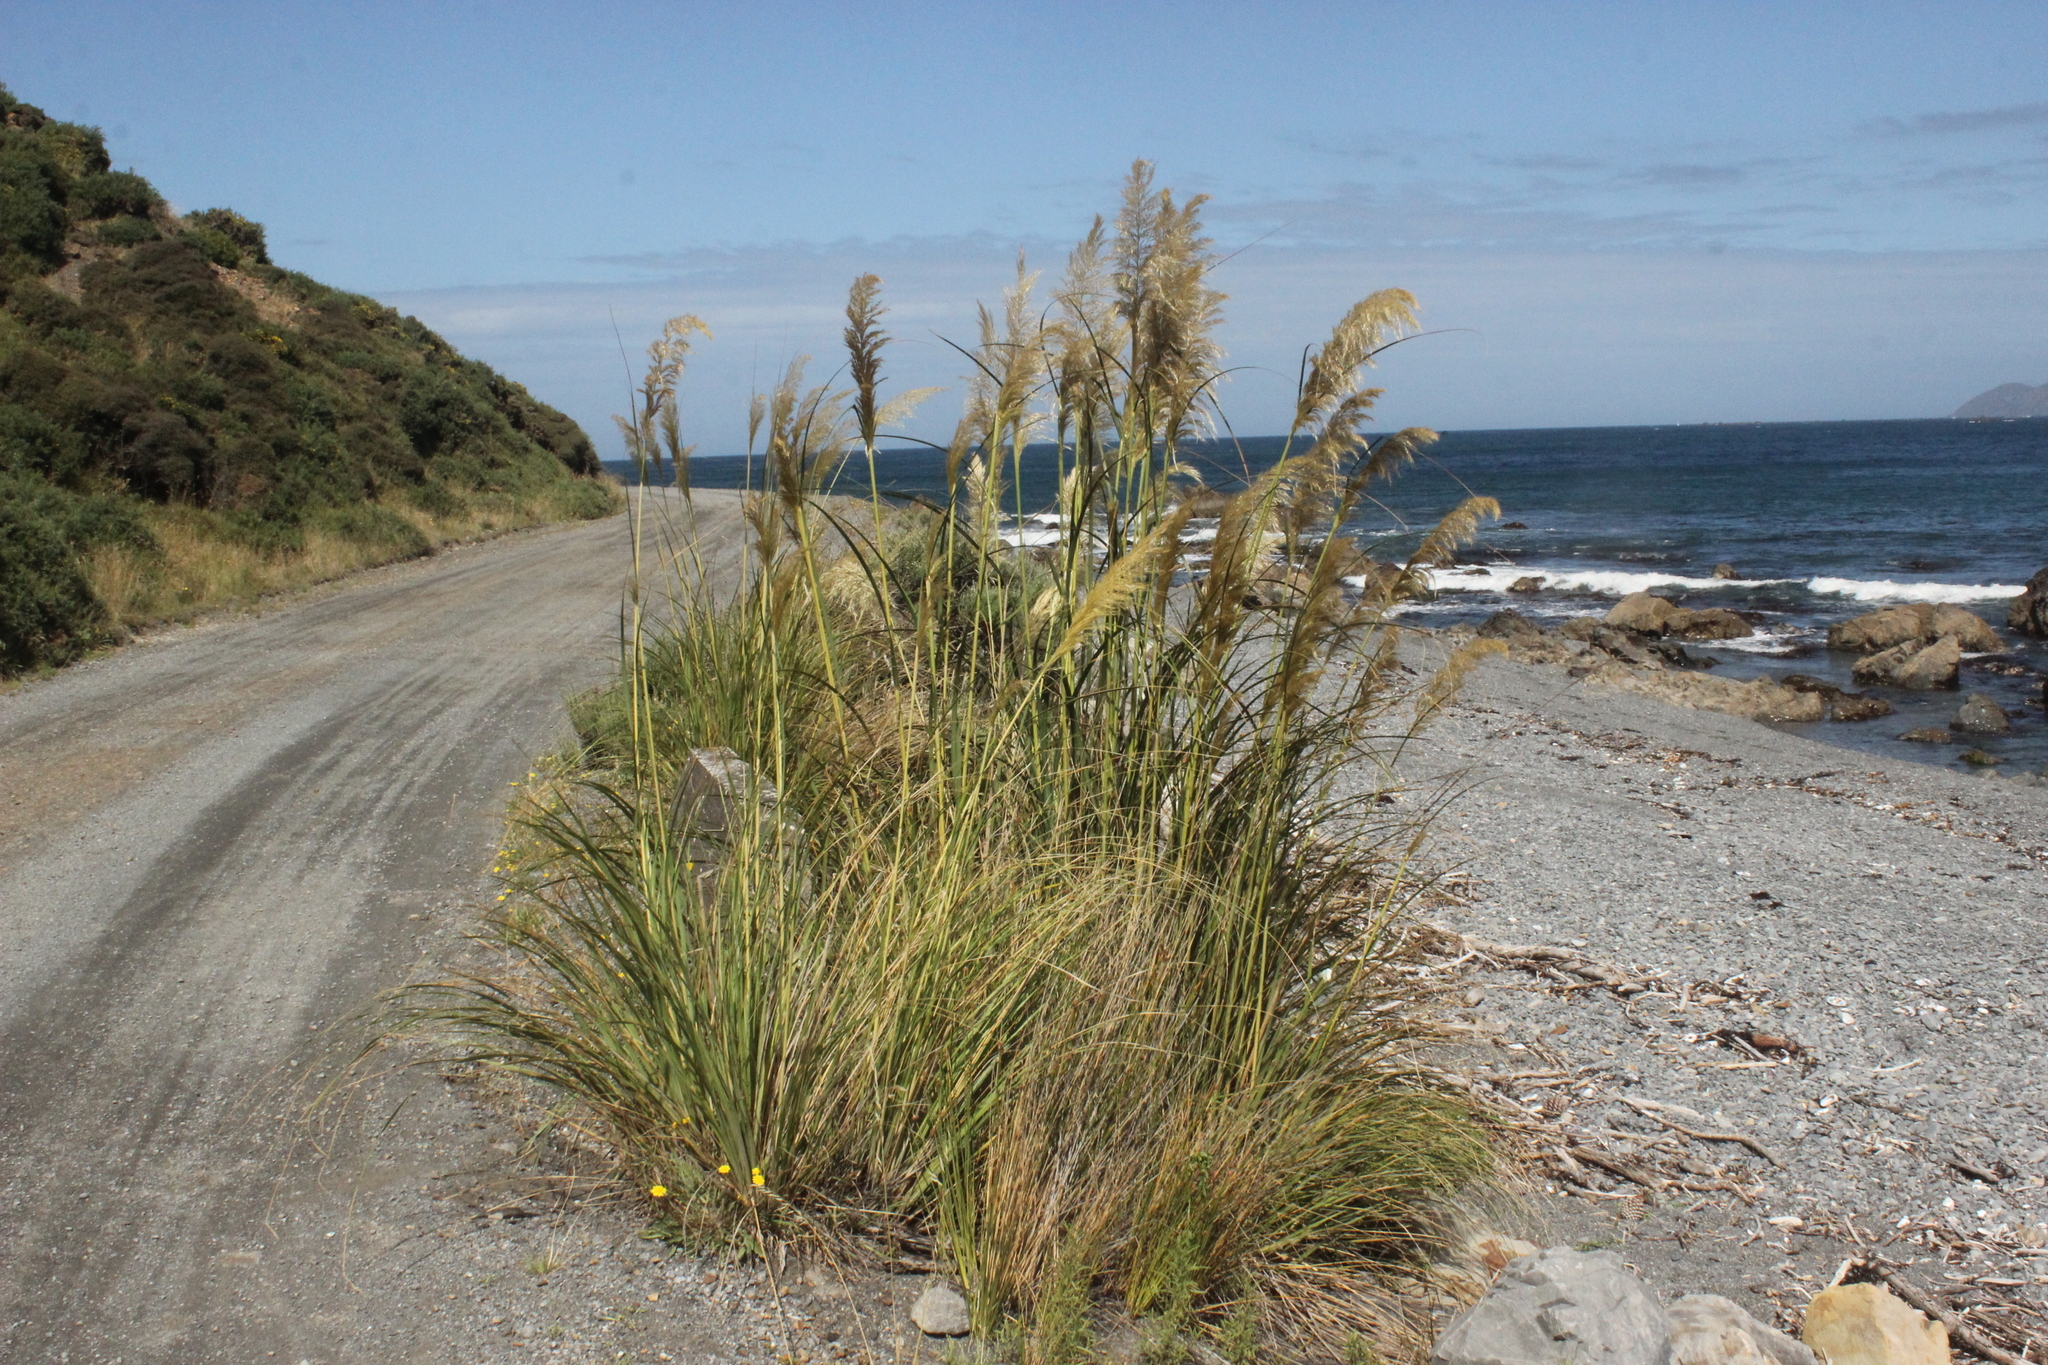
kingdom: Plantae
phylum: Tracheophyta
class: Liliopsida
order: Poales
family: Poaceae
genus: Austroderia
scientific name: Austroderia toetoe
